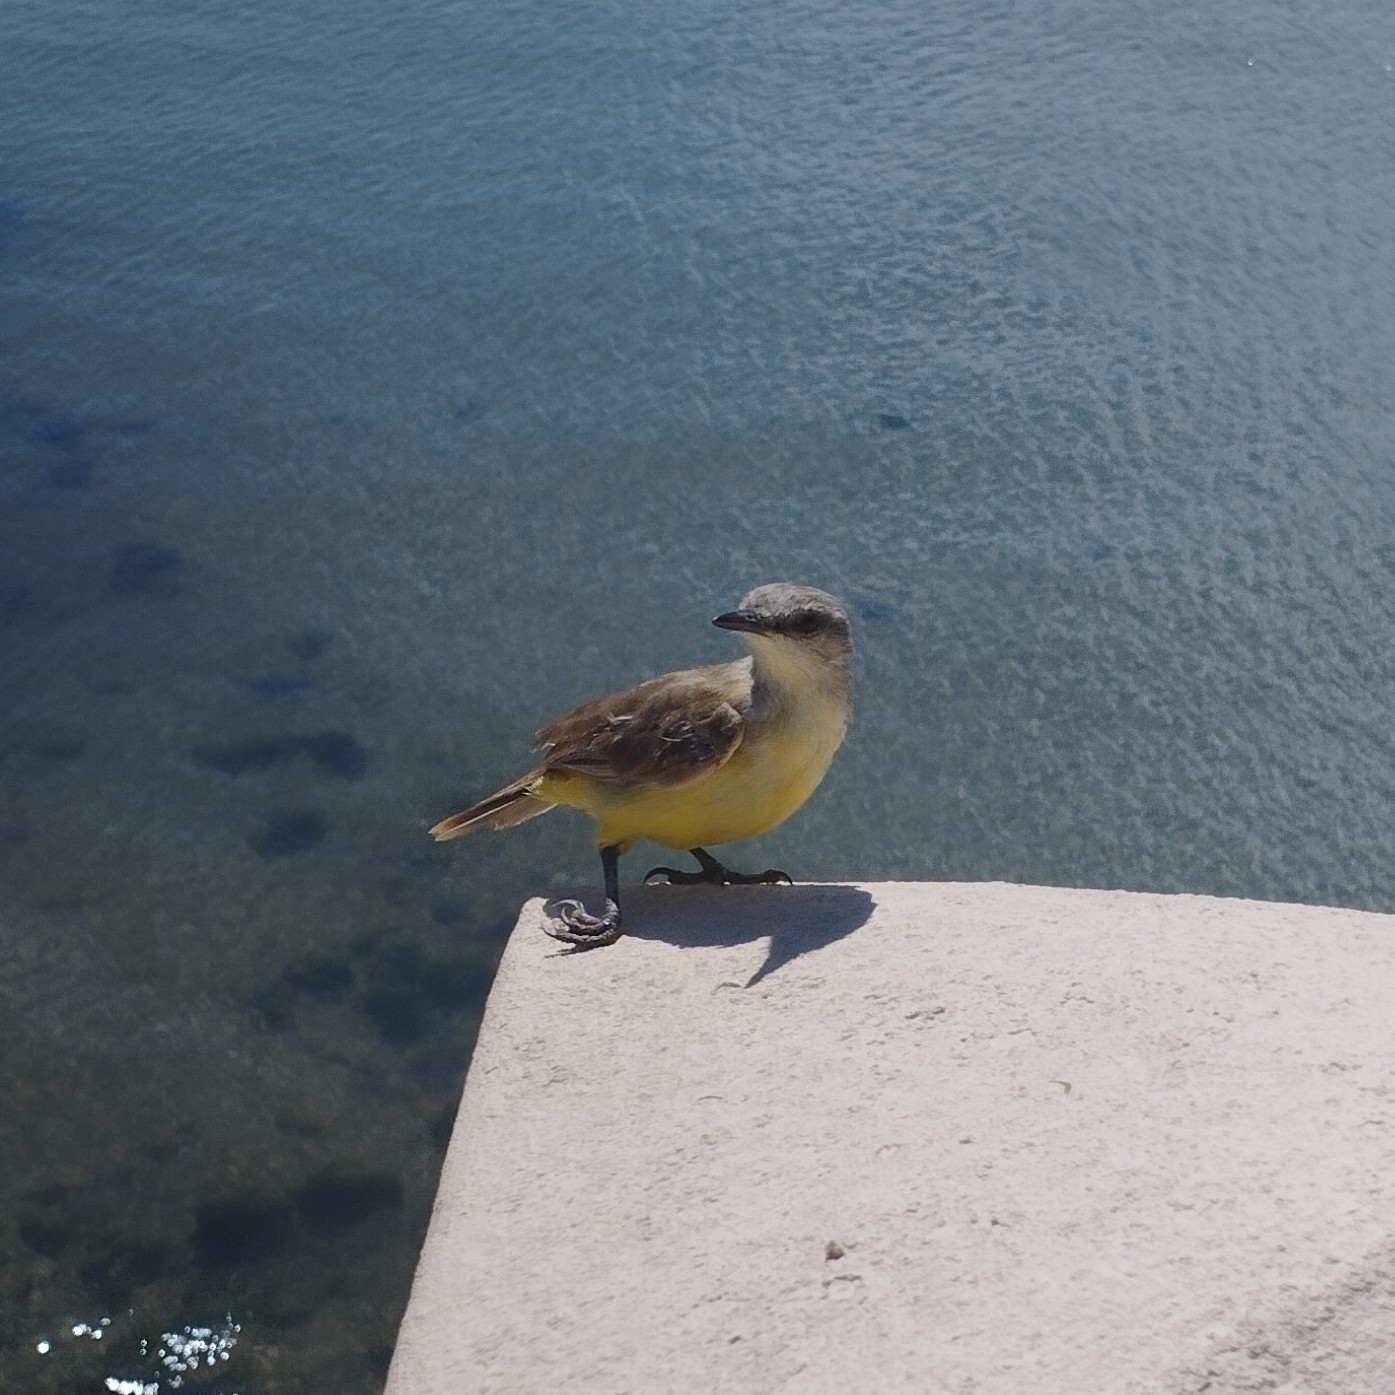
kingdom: Animalia
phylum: Chordata
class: Aves
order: Passeriformes
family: Tyrannidae
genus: Machetornis
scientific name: Machetornis rixosa
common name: Cattle tyrant
